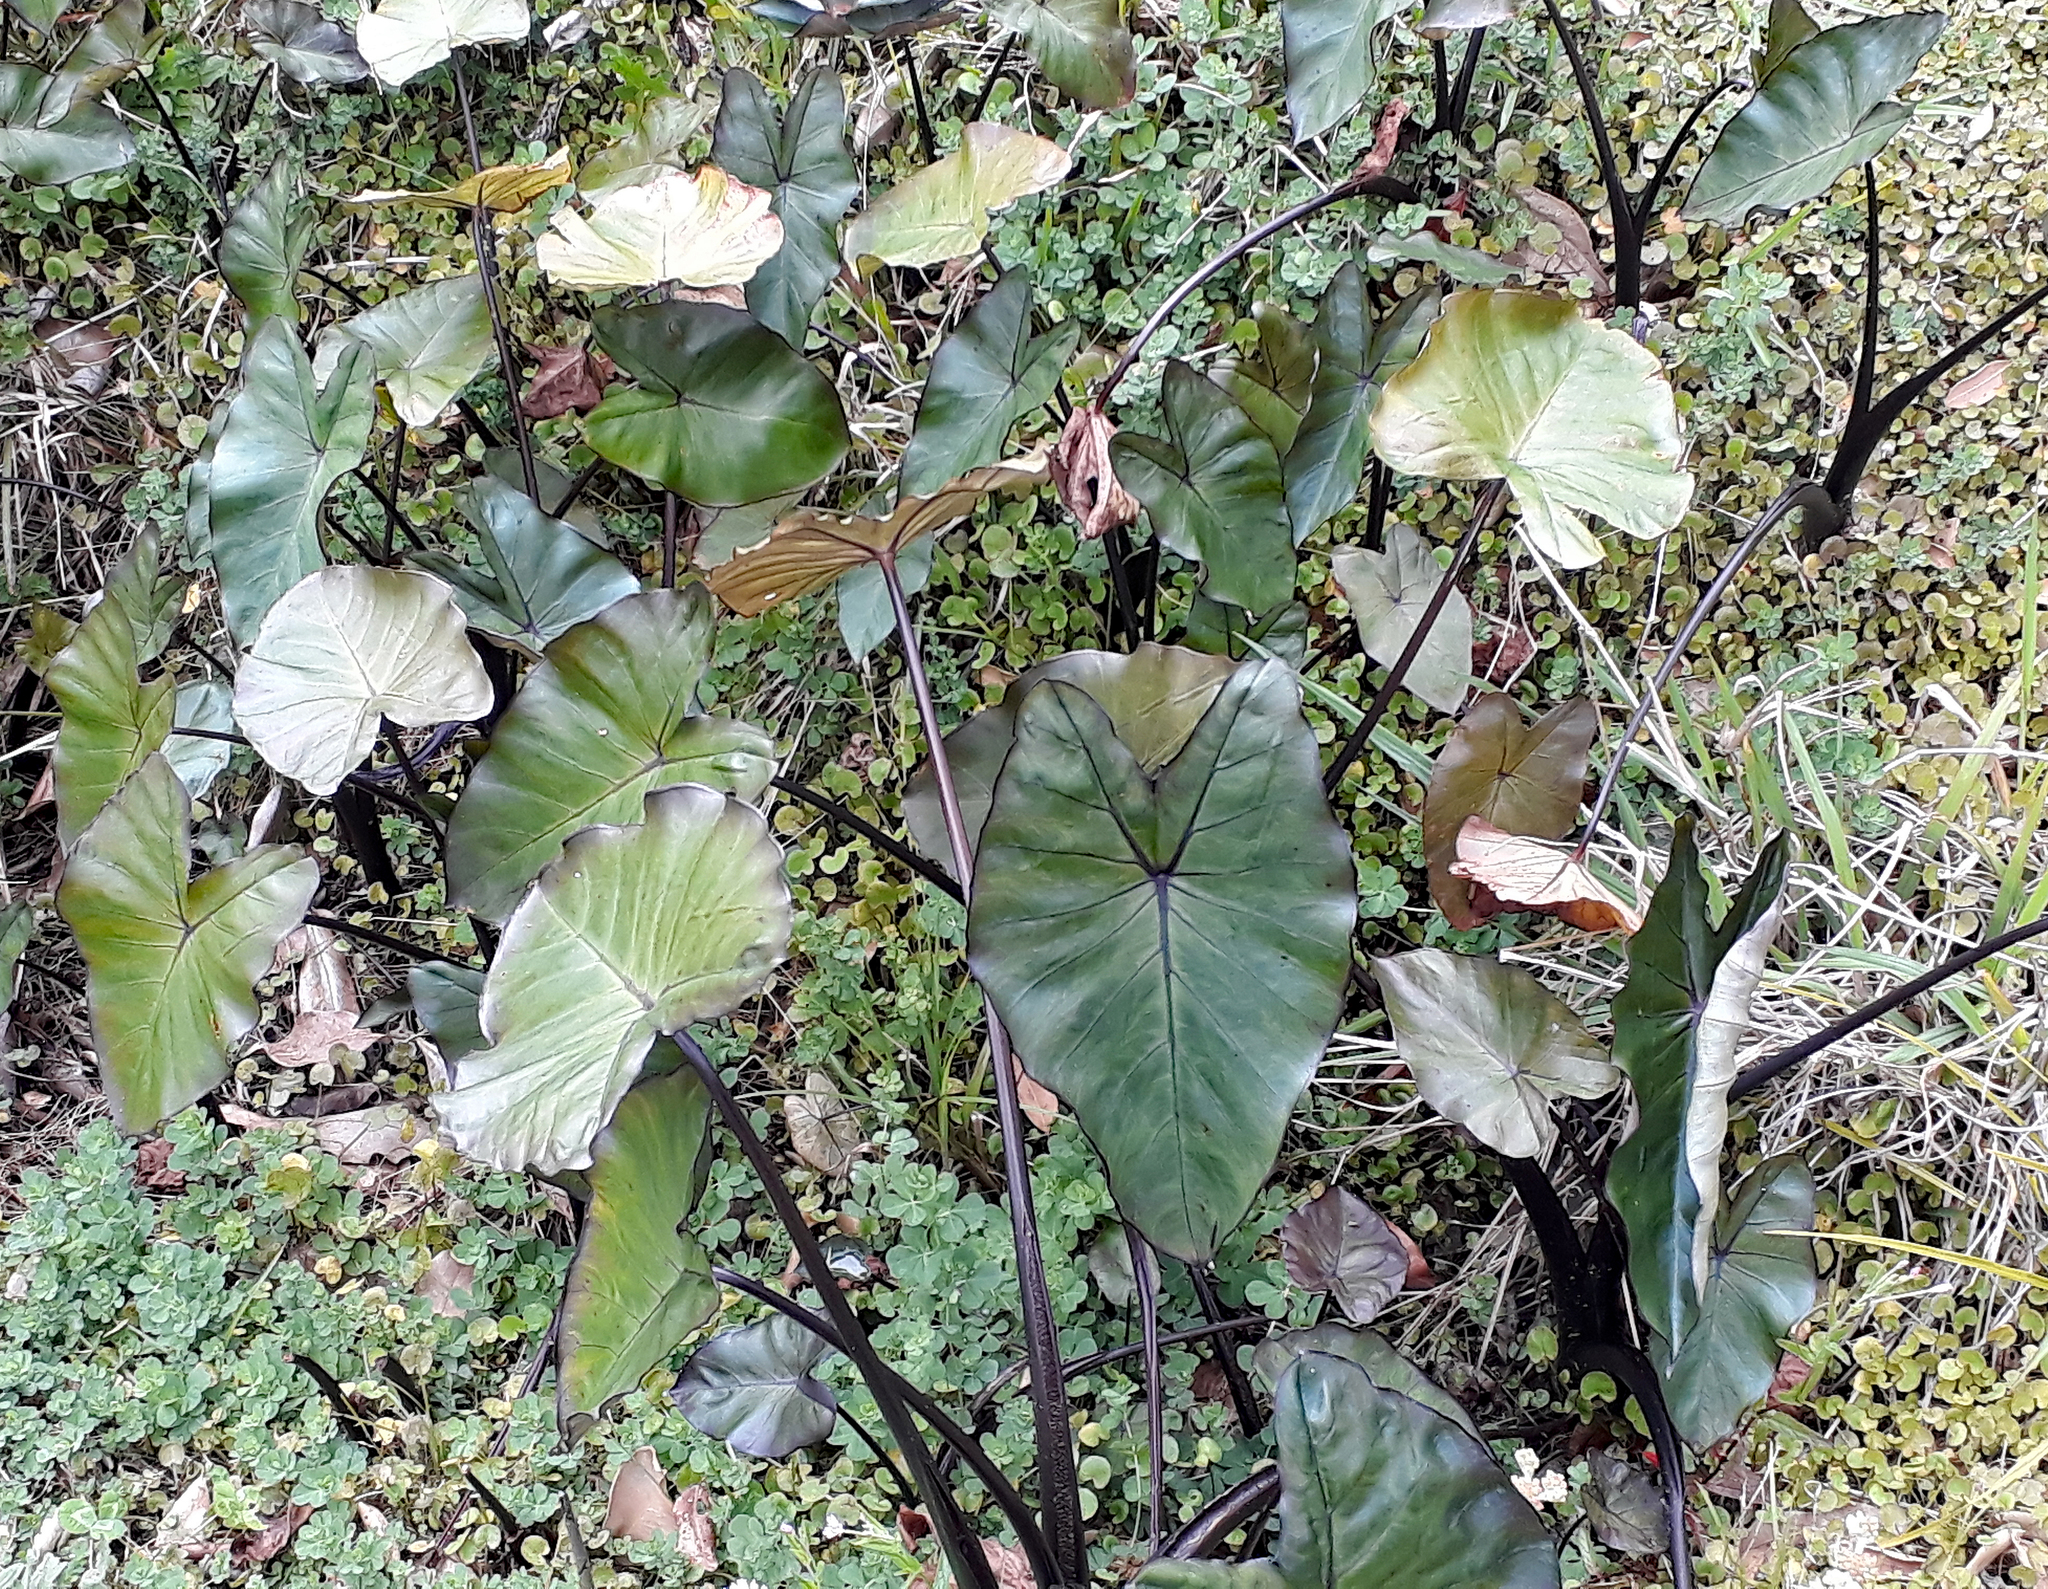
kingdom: Plantae
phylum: Tracheophyta
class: Liliopsida
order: Alismatales
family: Araceae
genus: Colocasia
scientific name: Colocasia esculenta
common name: Taro
